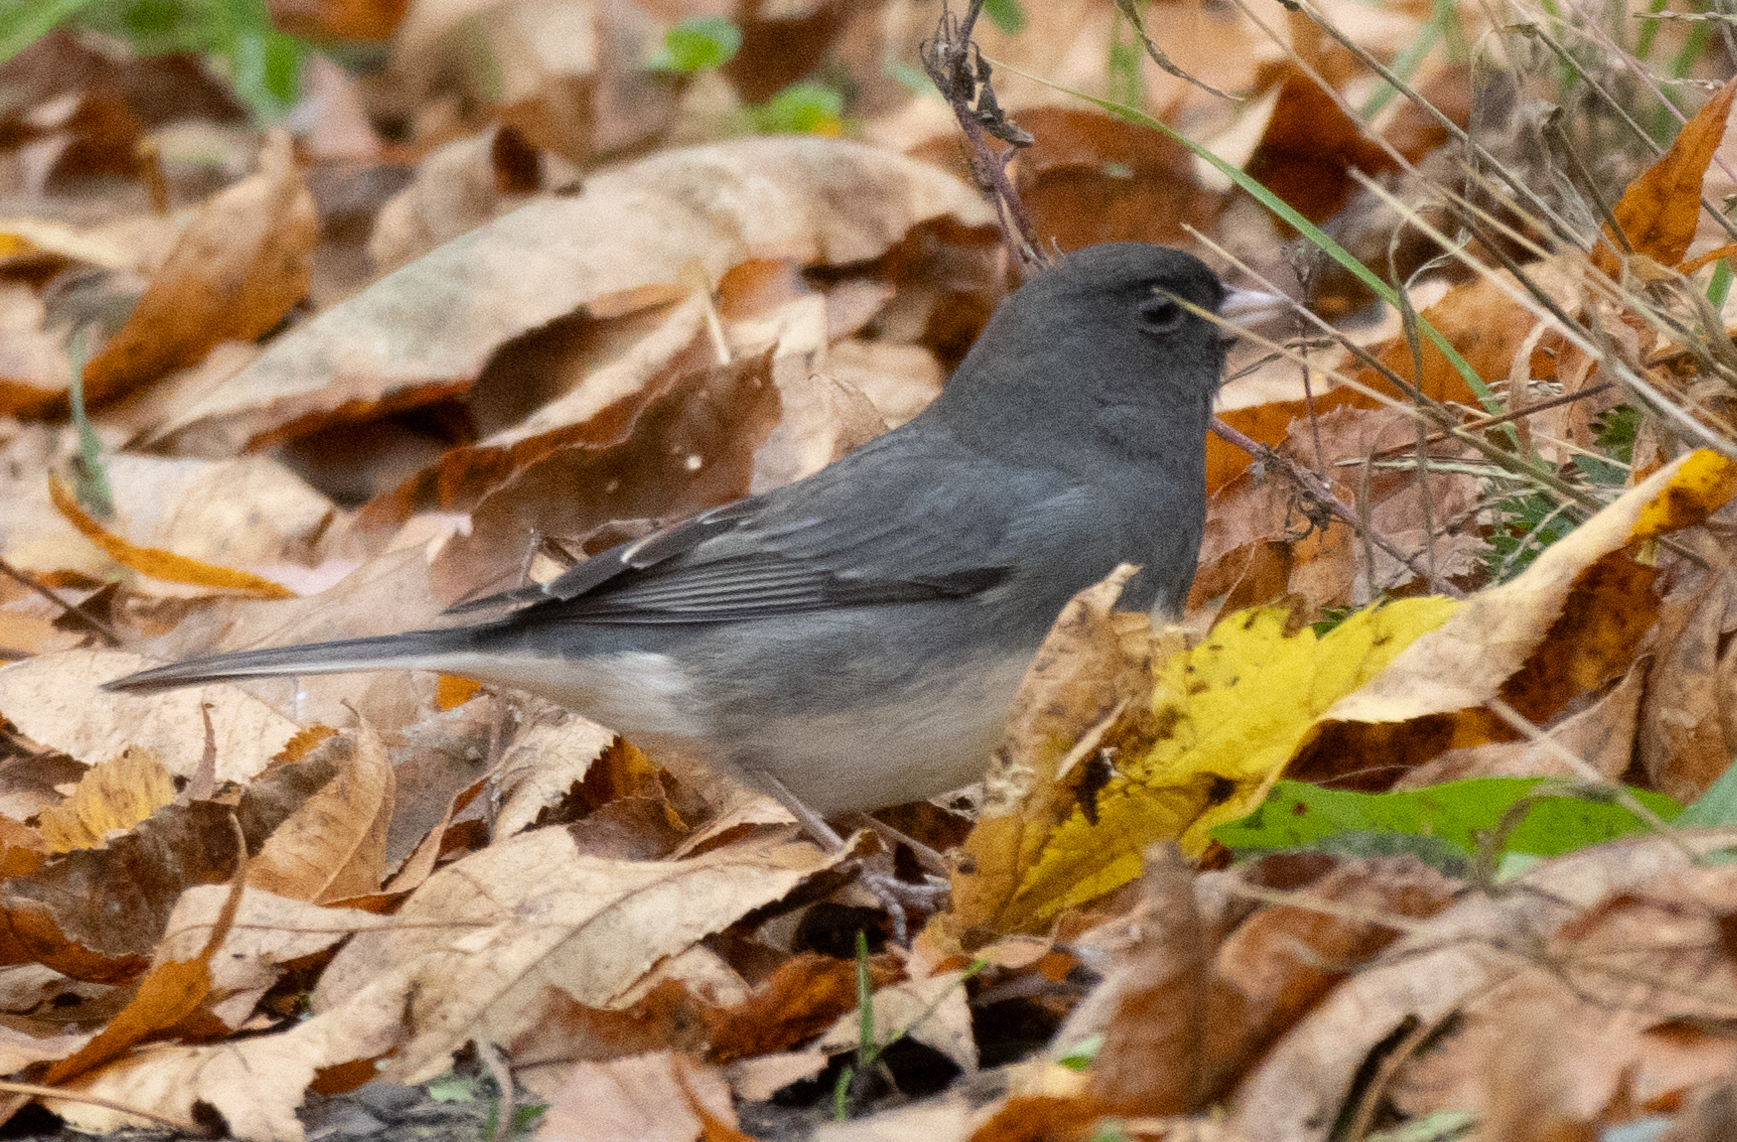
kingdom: Animalia
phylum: Chordata
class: Aves
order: Passeriformes
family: Passerellidae
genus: Junco
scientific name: Junco hyemalis
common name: Dark-eyed junco
